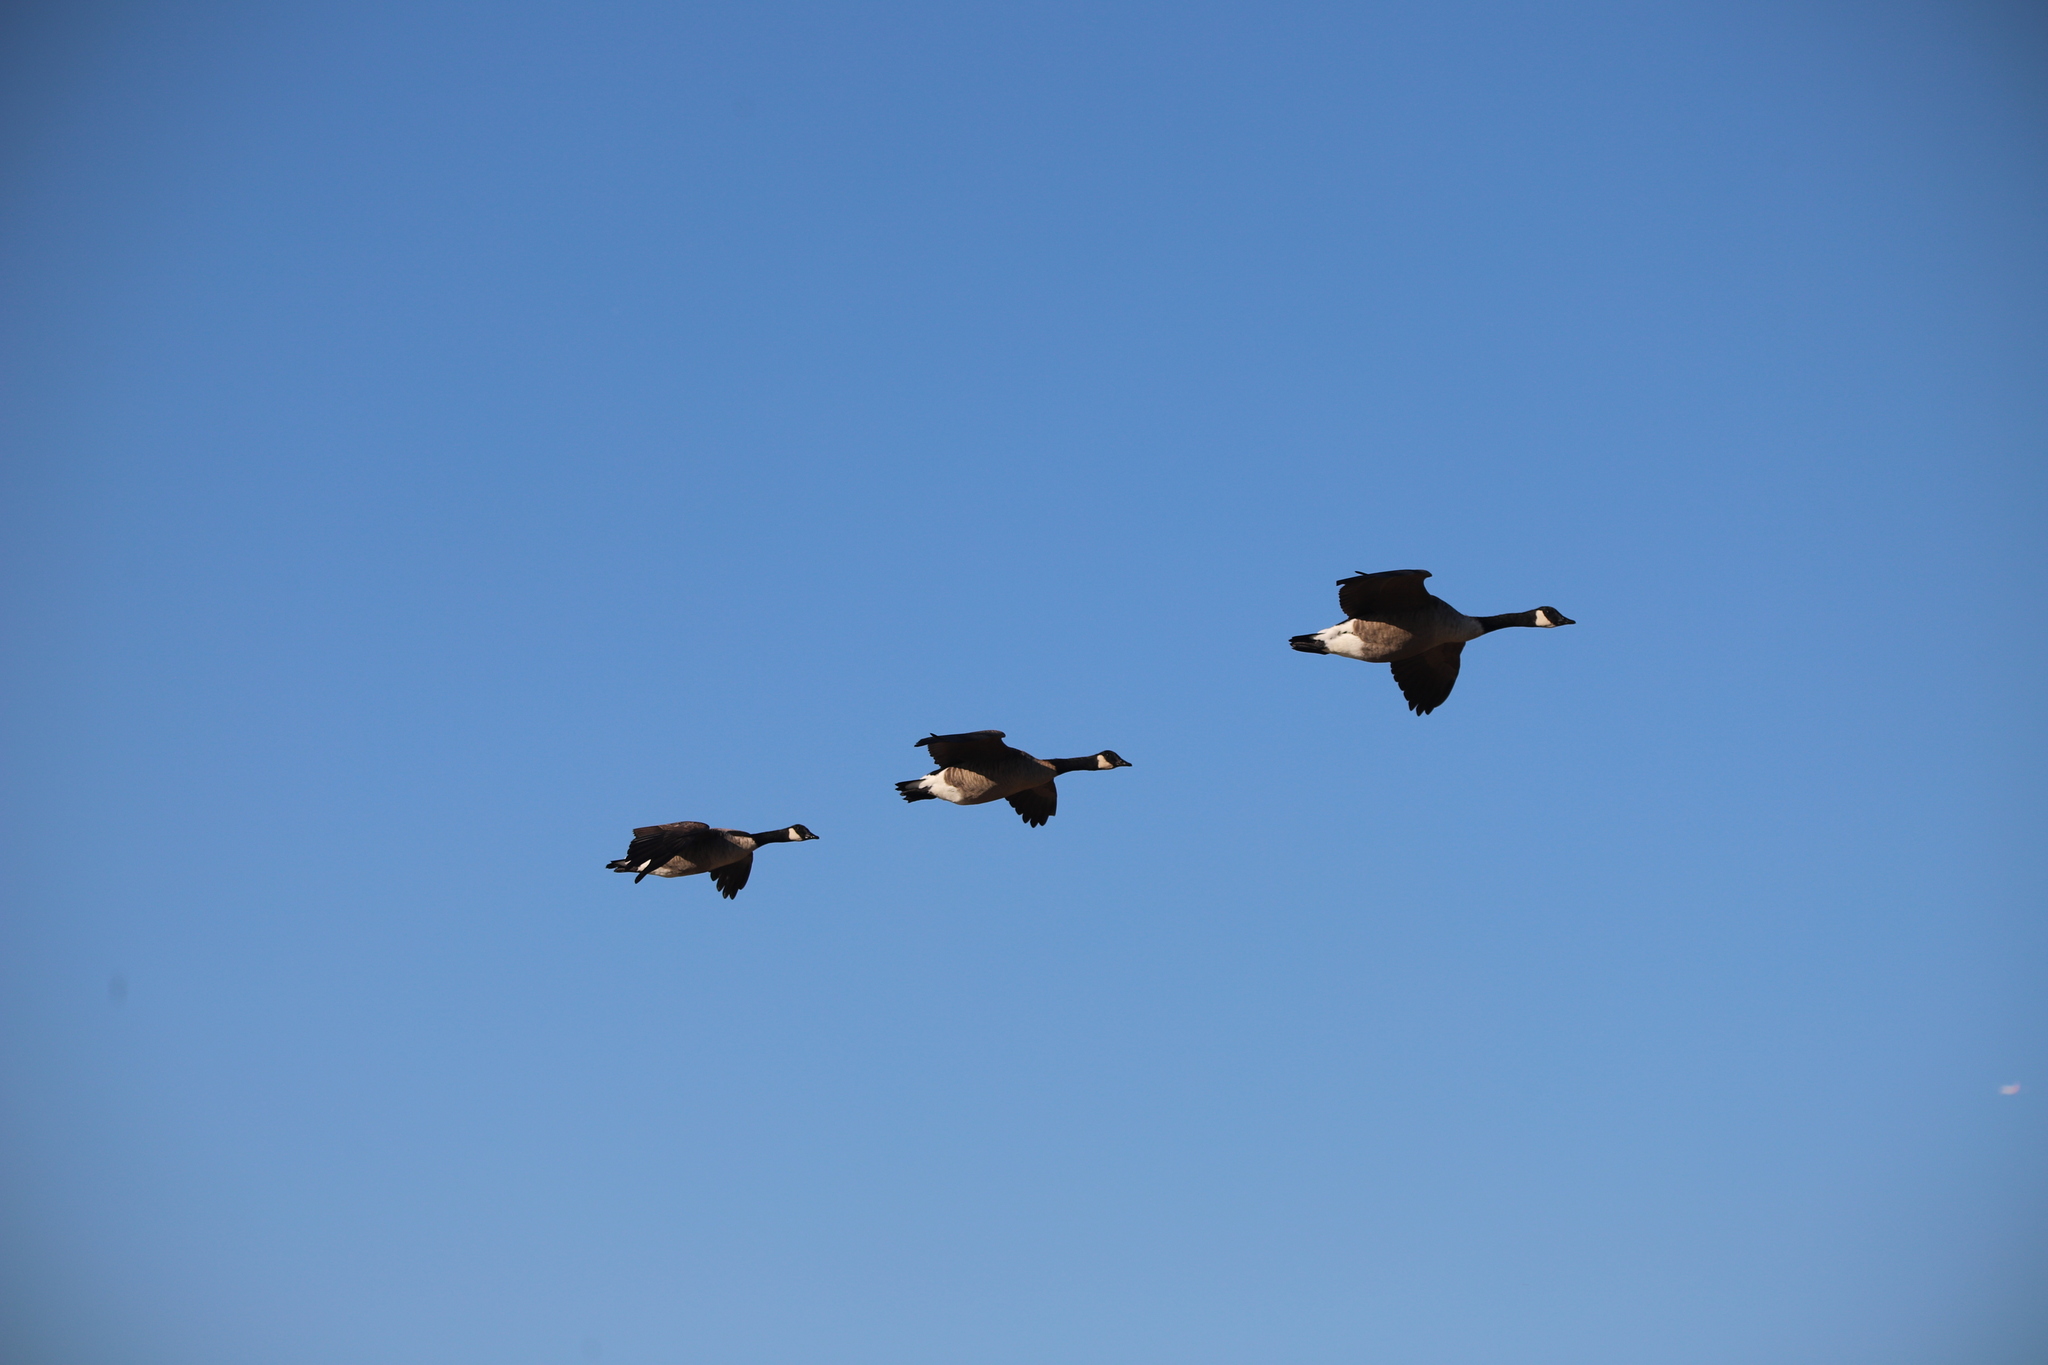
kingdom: Animalia
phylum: Chordata
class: Aves
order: Anseriformes
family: Anatidae
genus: Branta
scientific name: Branta canadensis
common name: Canada goose
